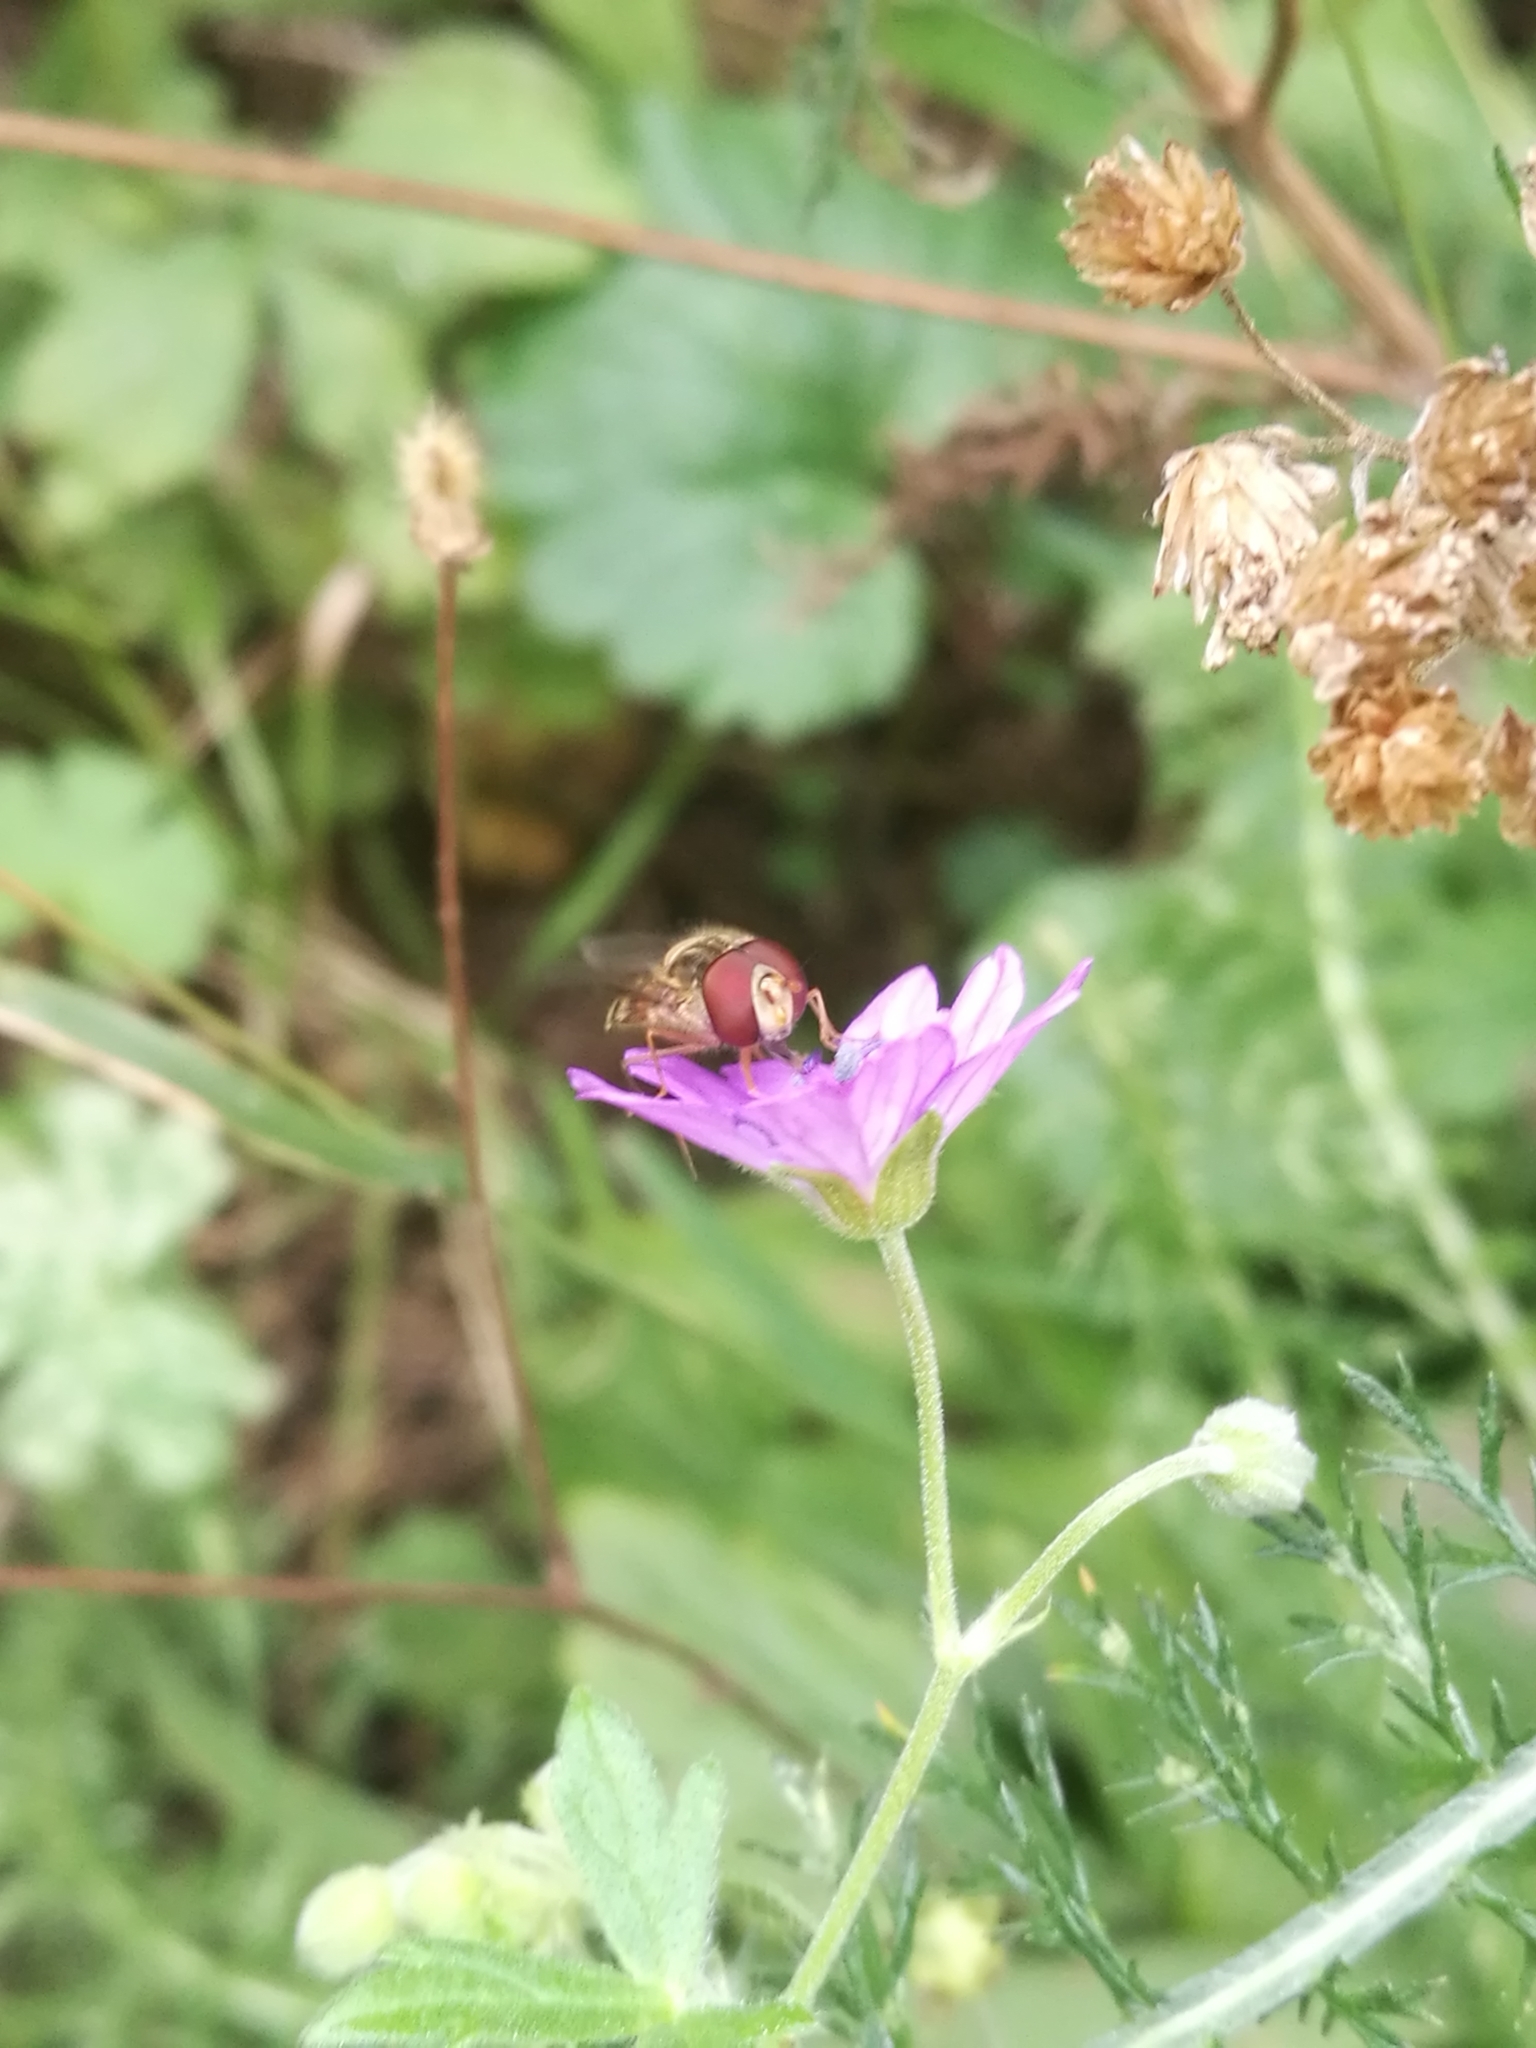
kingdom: Animalia
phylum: Arthropoda
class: Insecta
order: Diptera
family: Syrphidae
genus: Episyrphus
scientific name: Episyrphus balteatus
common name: Marmalade hoverfly
